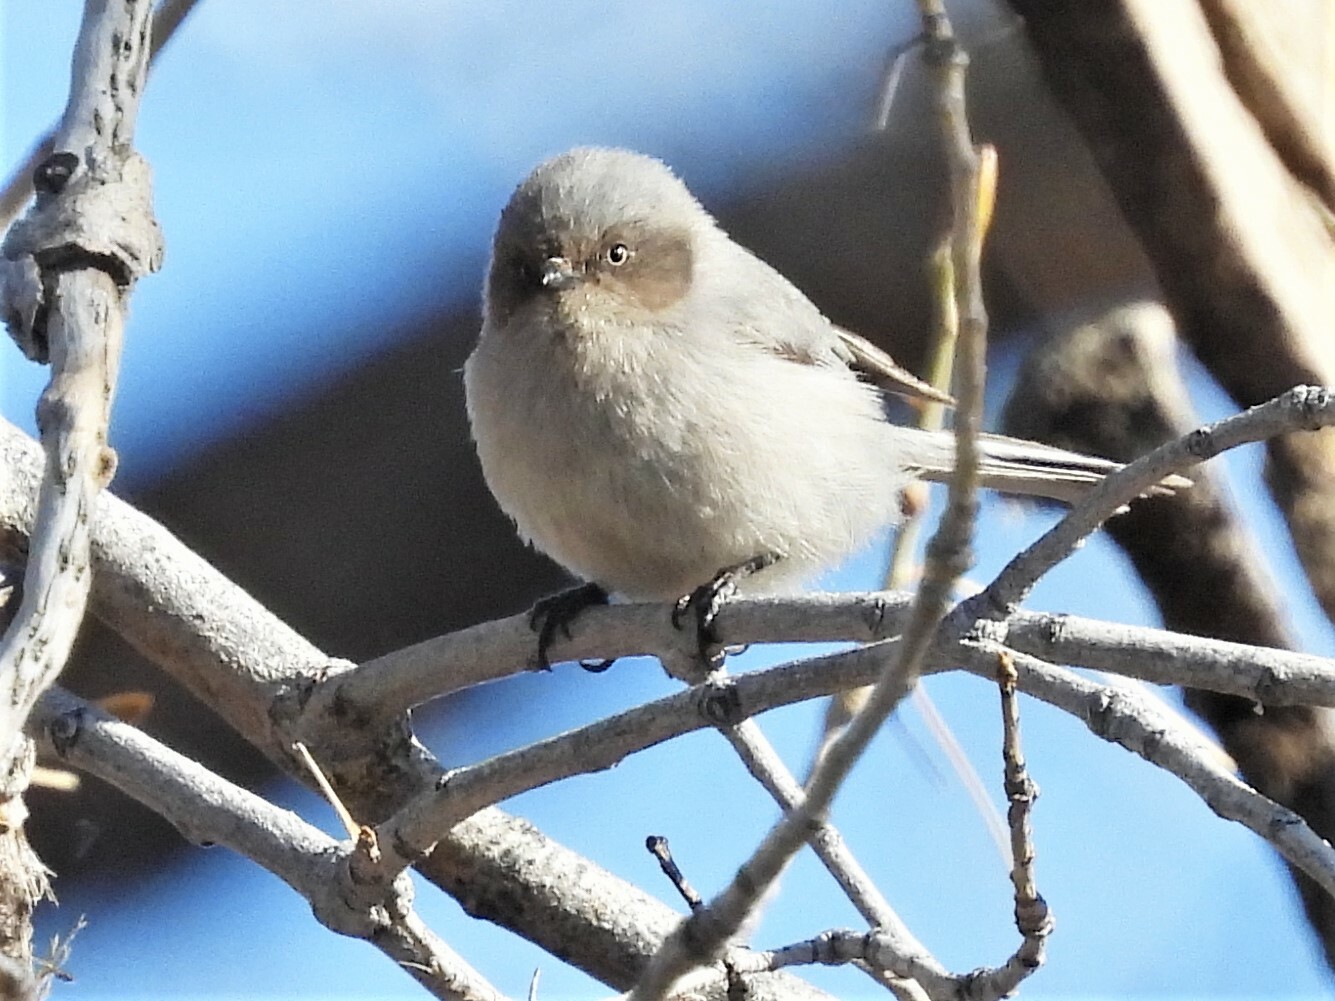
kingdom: Animalia
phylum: Chordata
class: Aves
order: Passeriformes
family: Aegithalidae
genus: Psaltriparus
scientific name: Psaltriparus minimus
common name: American bushtit
